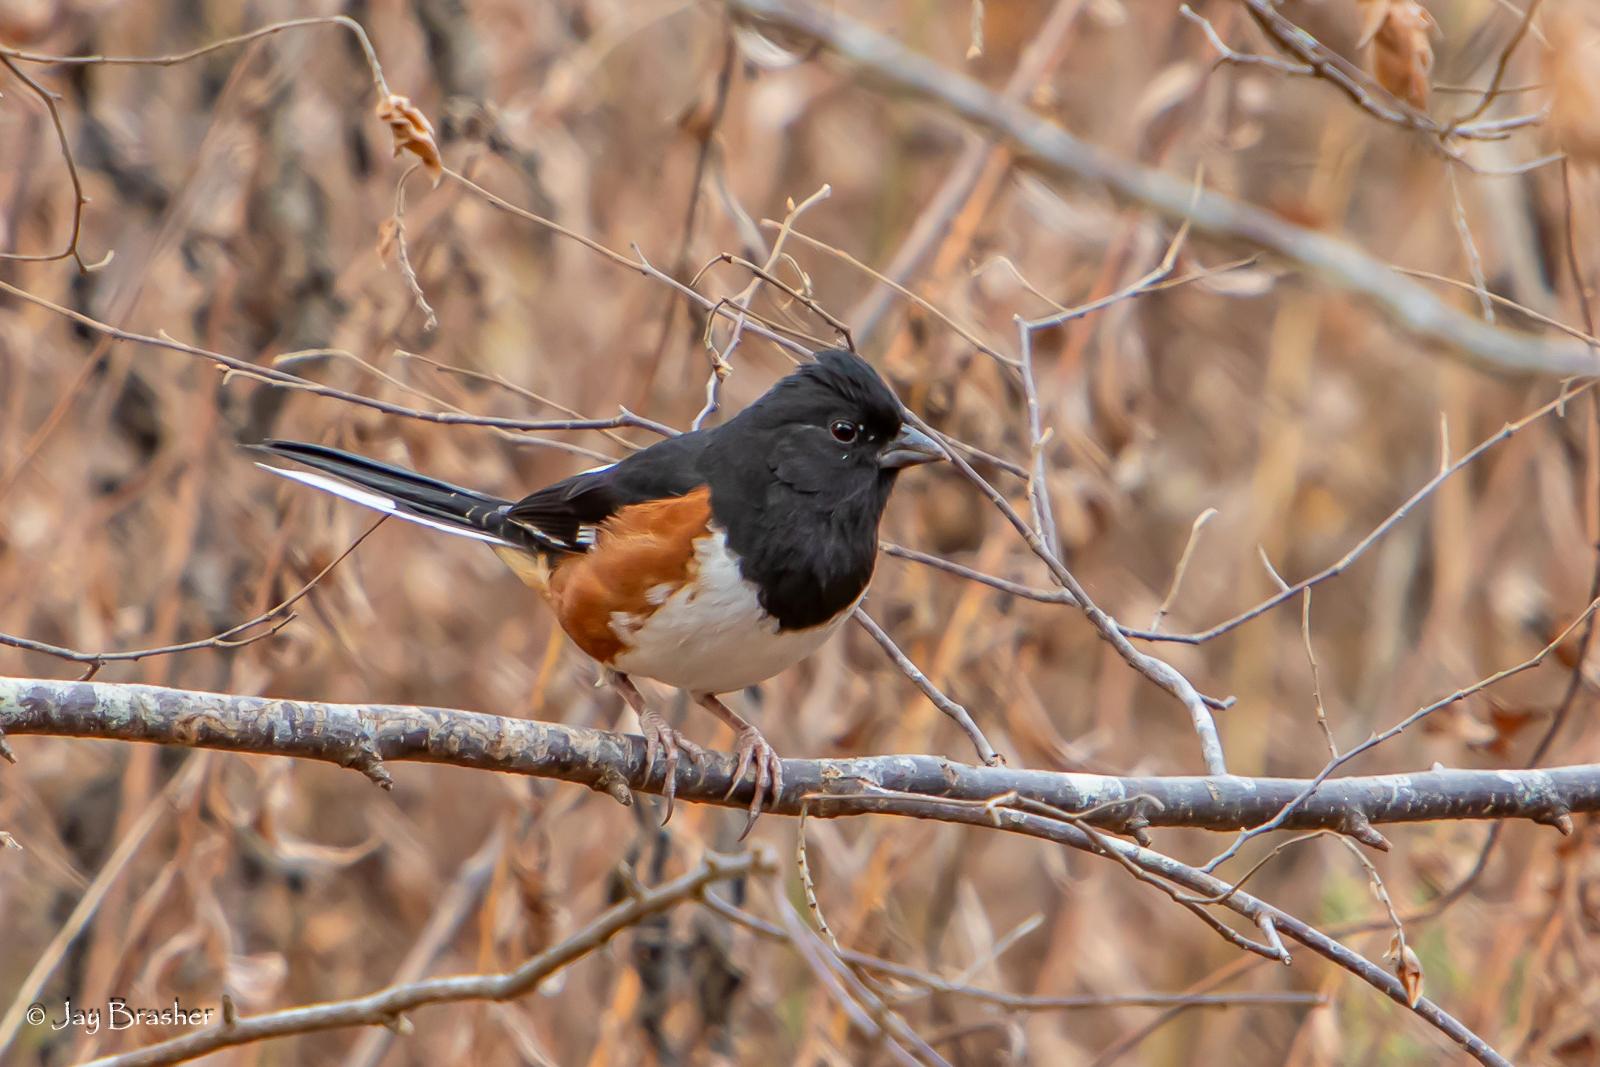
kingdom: Animalia
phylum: Chordata
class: Aves
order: Passeriformes
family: Passerellidae
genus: Pipilo
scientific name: Pipilo erythrophthalmus
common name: Eastern towhee
